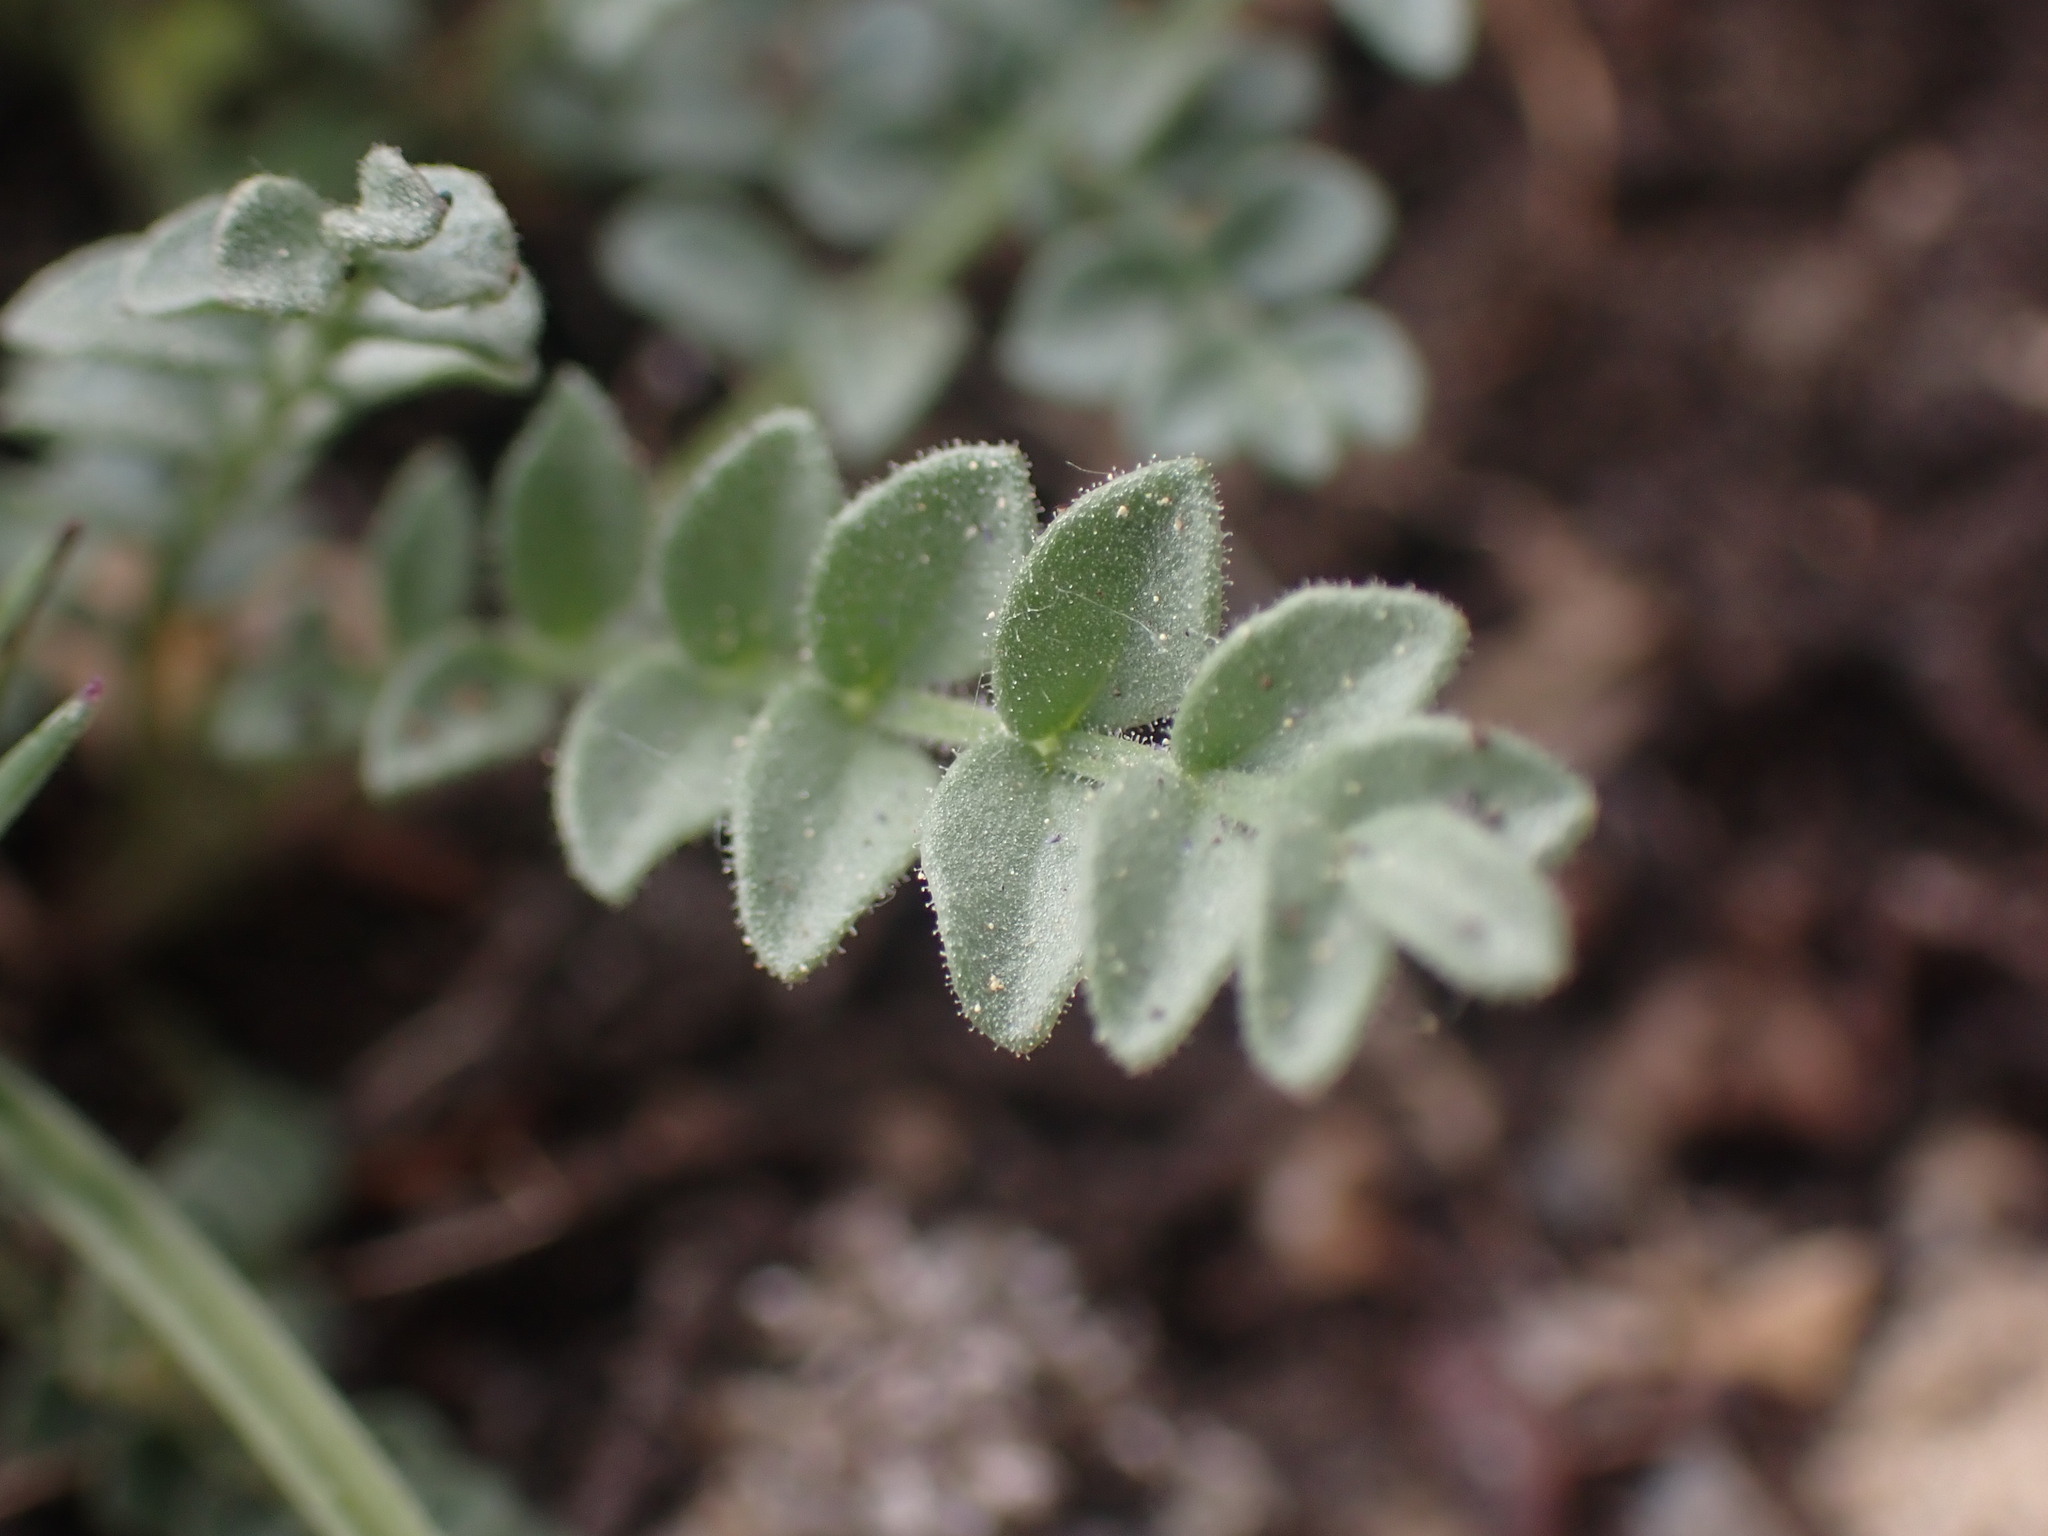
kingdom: Plantae
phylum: Tracheophyta
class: Magnoliopsida
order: Ericales
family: Polemoniaceae
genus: Polemonium
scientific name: Polemonium pulcherrimum
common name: Short jacob's-ladder
